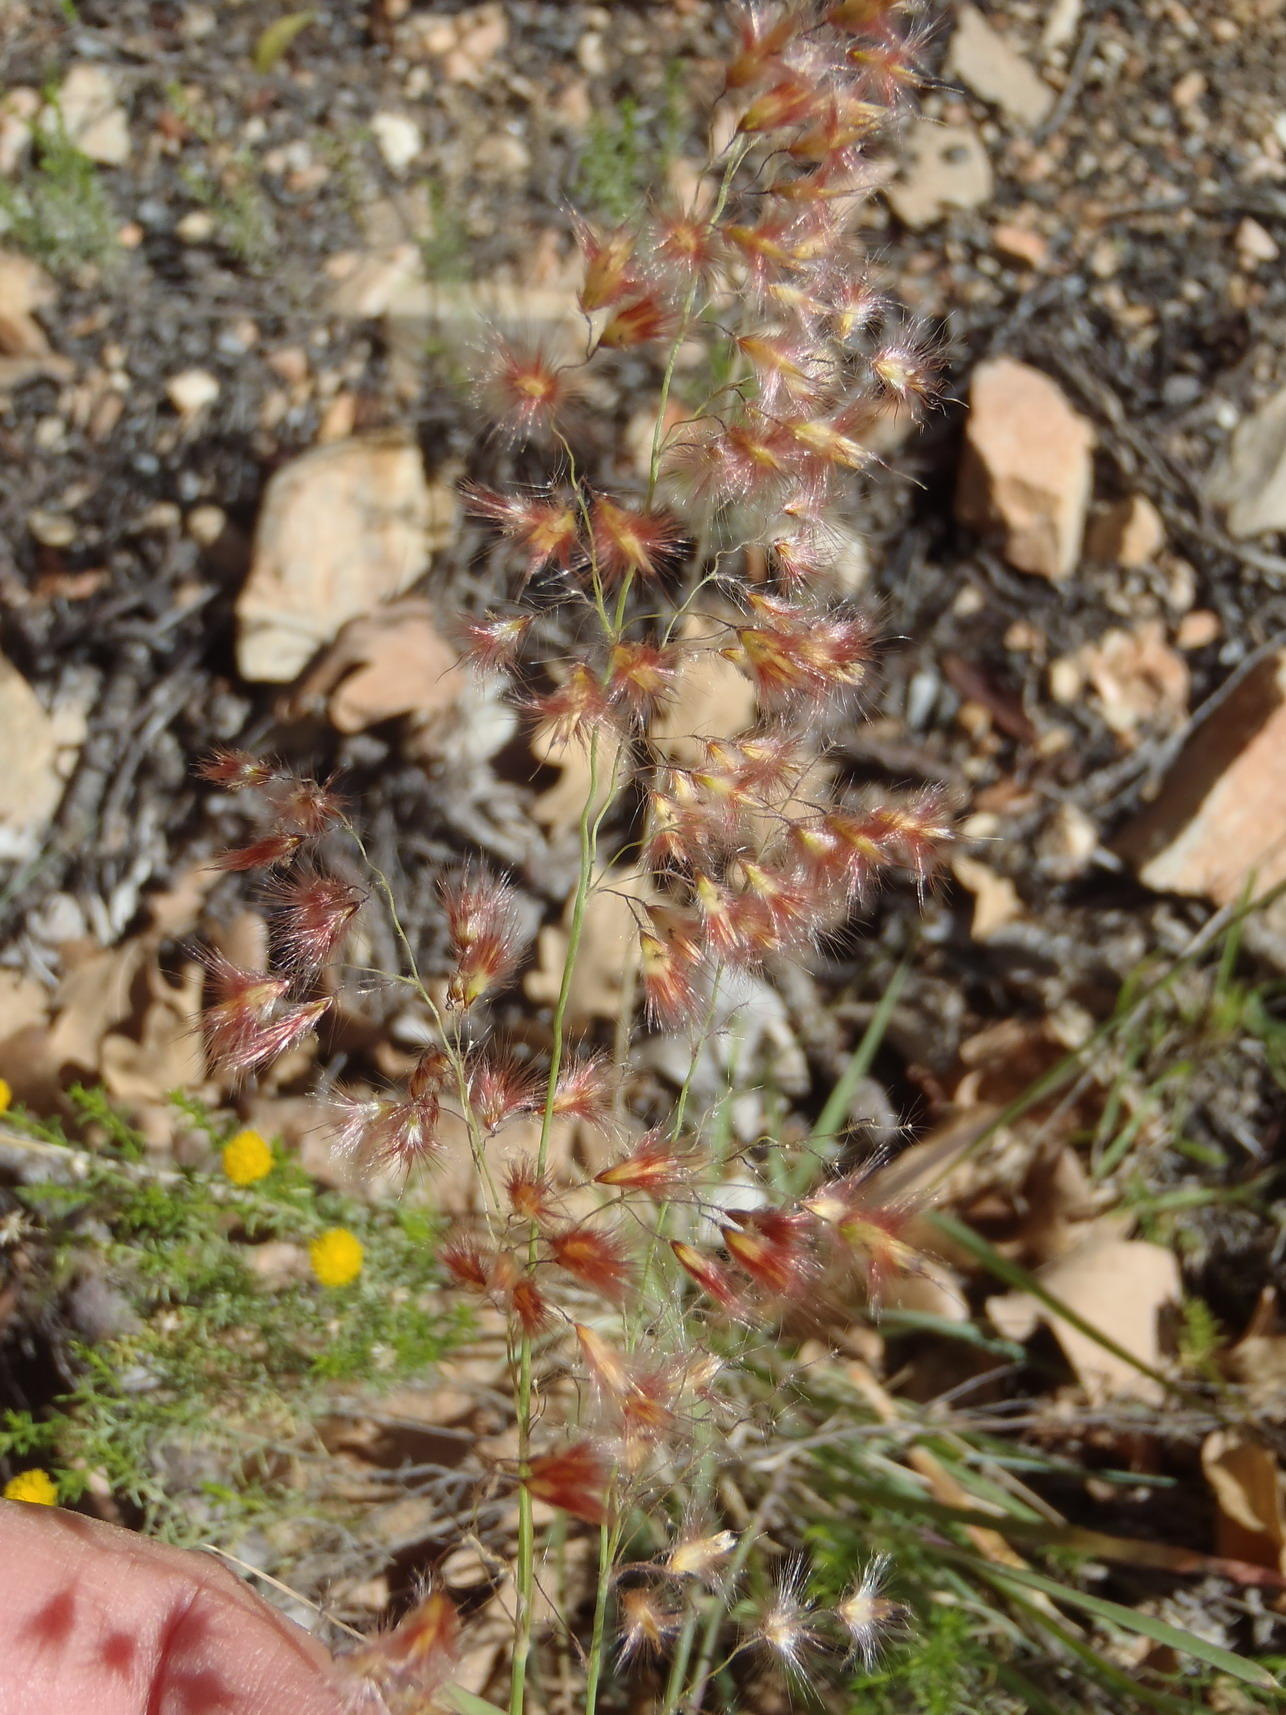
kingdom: Plantae
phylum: Tracheophyta
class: Liliopsida
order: Poales
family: Poaceae
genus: Melinis
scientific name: Melinis repens
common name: Rose natal grass
